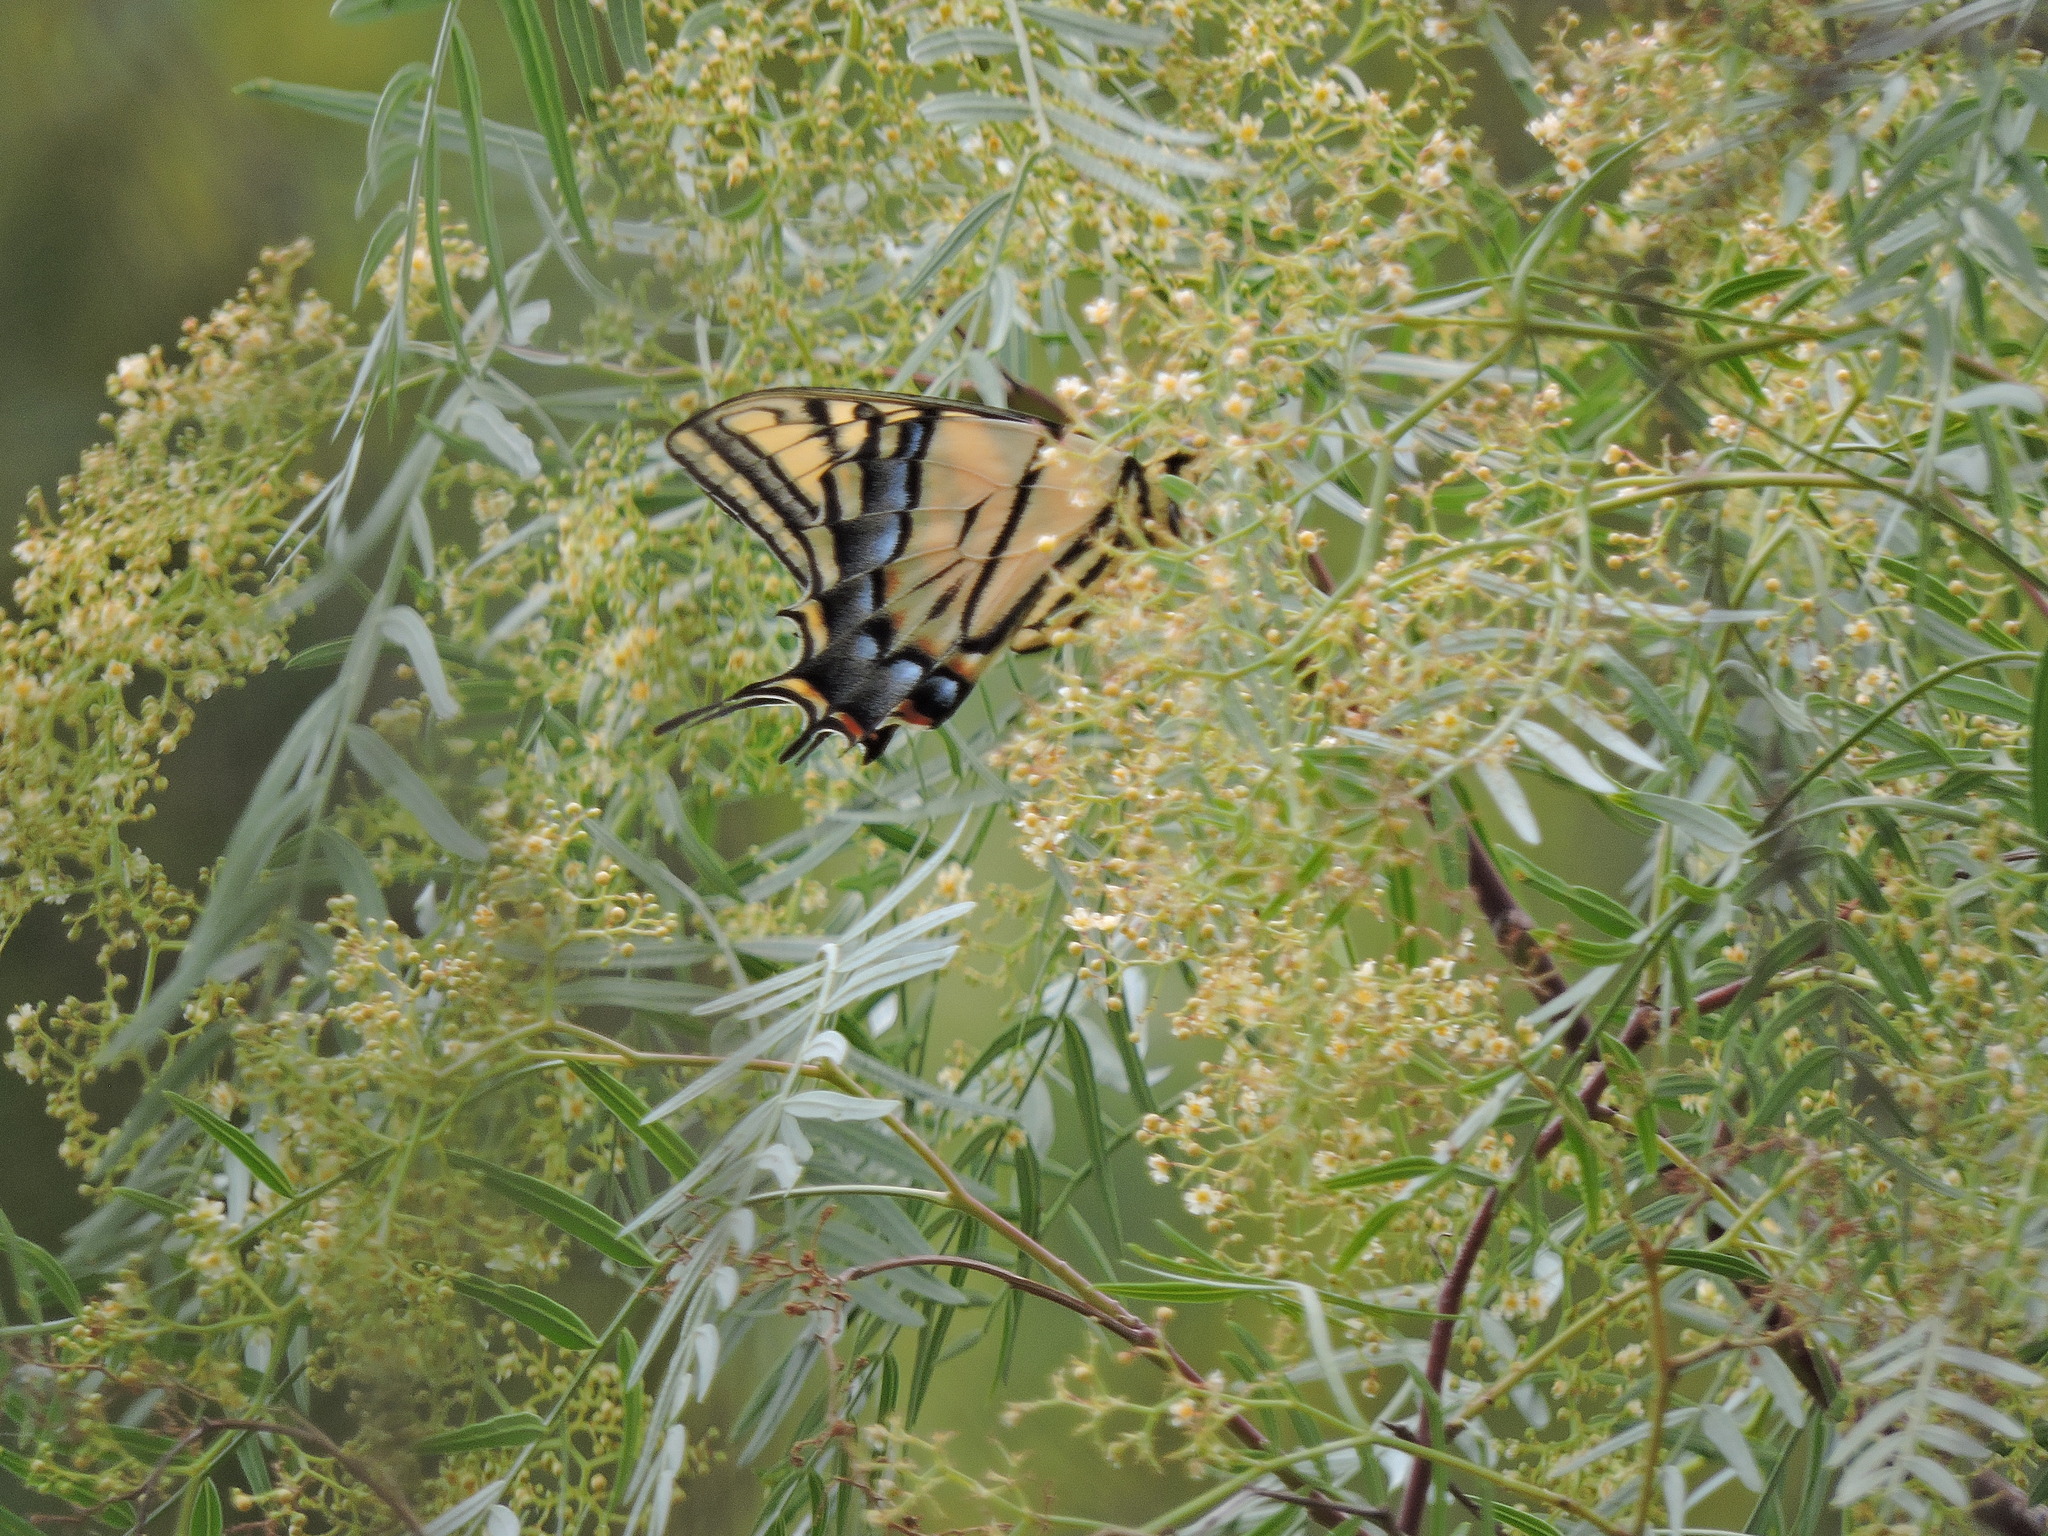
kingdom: Animalia
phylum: Arthropoda
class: Insecta
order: Lepidoptera
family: Papilionidae
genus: Papilio
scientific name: Papilio multicaudata
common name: Two-tailed tiger swallowtail
